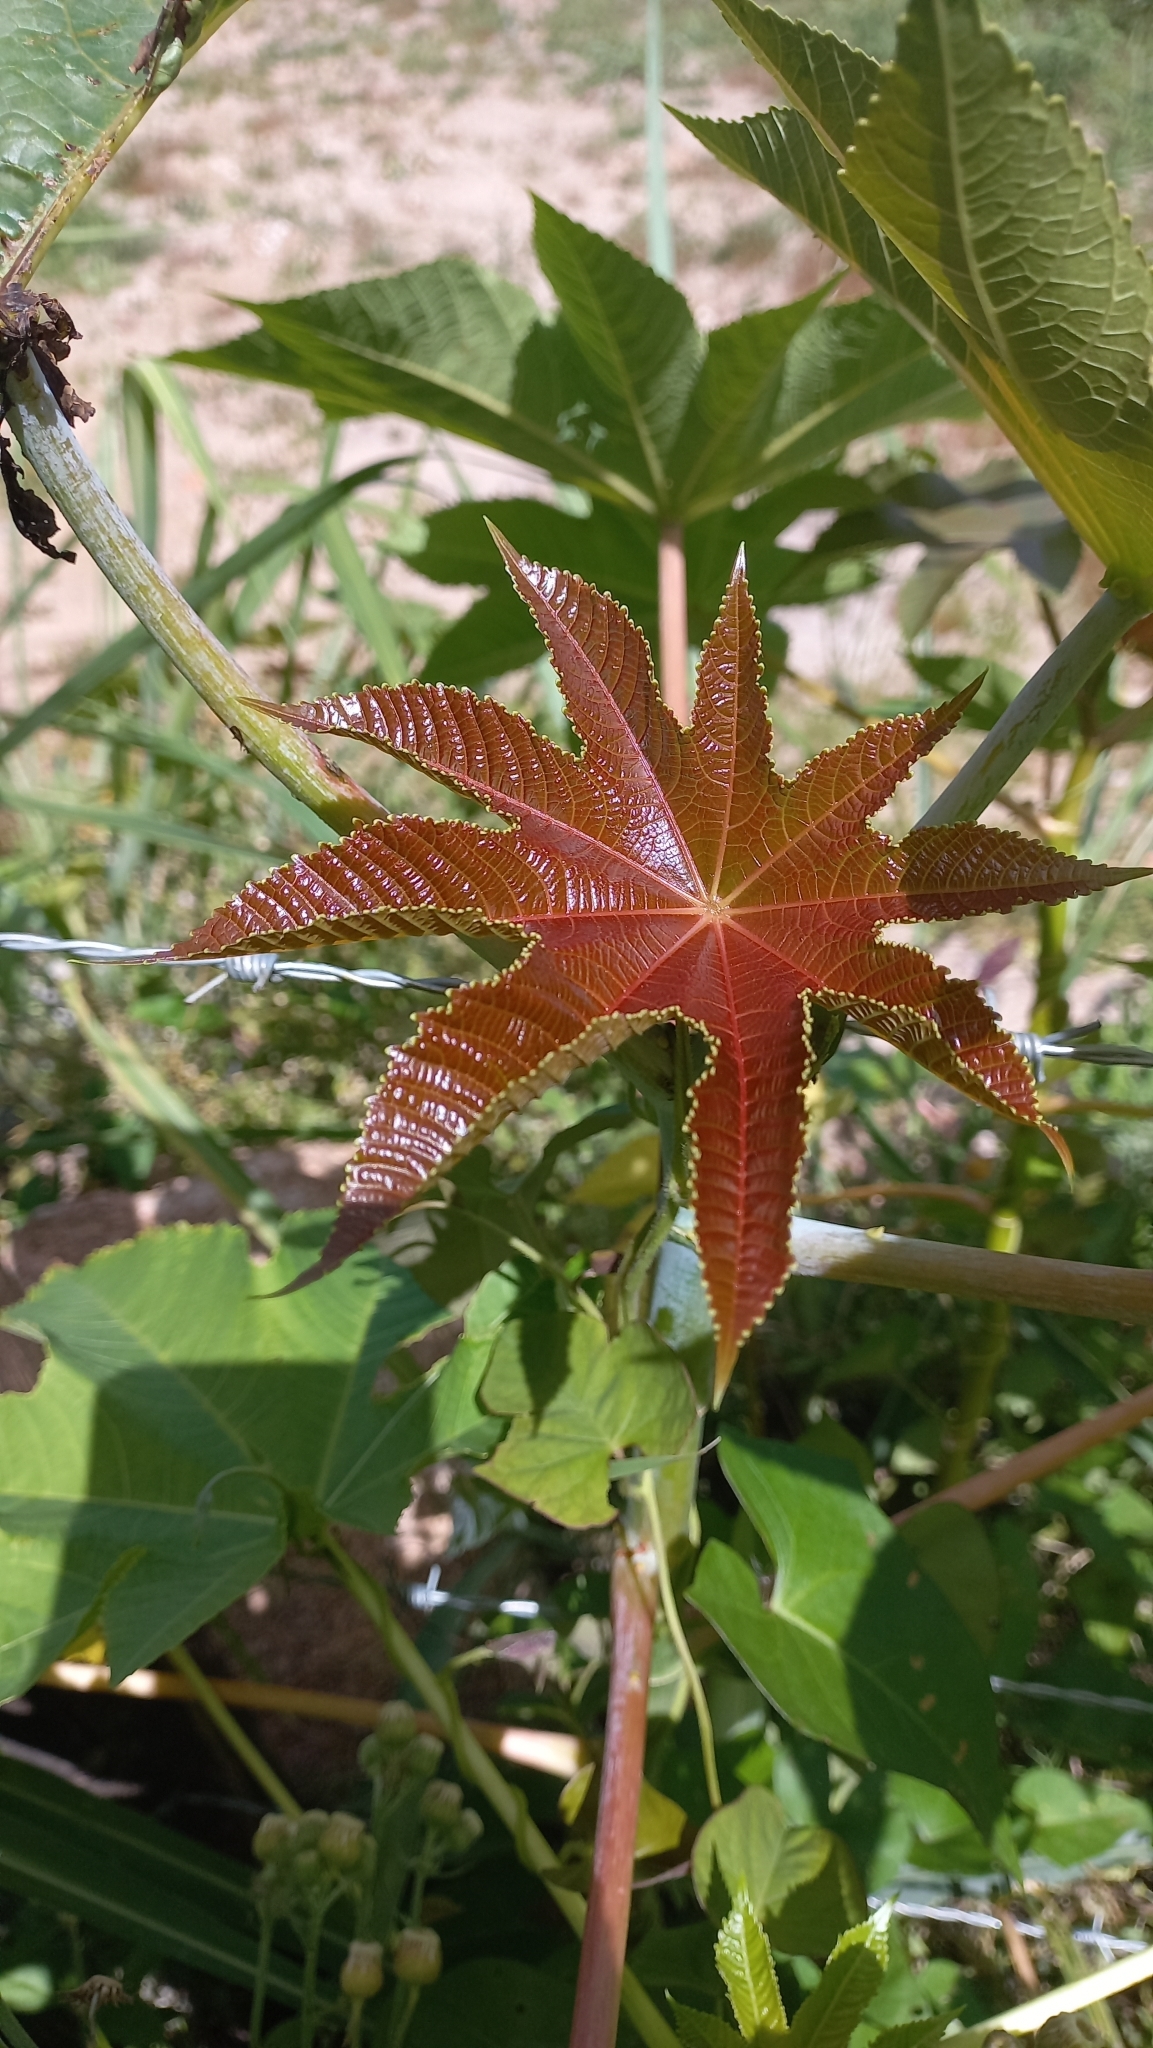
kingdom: Plantae
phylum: Tracheophyta
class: Magnoliopsida
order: Malpighiales
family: Euphorbiaceae
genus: Ricinus
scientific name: Ricinus communis
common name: Castor-oil-plant
